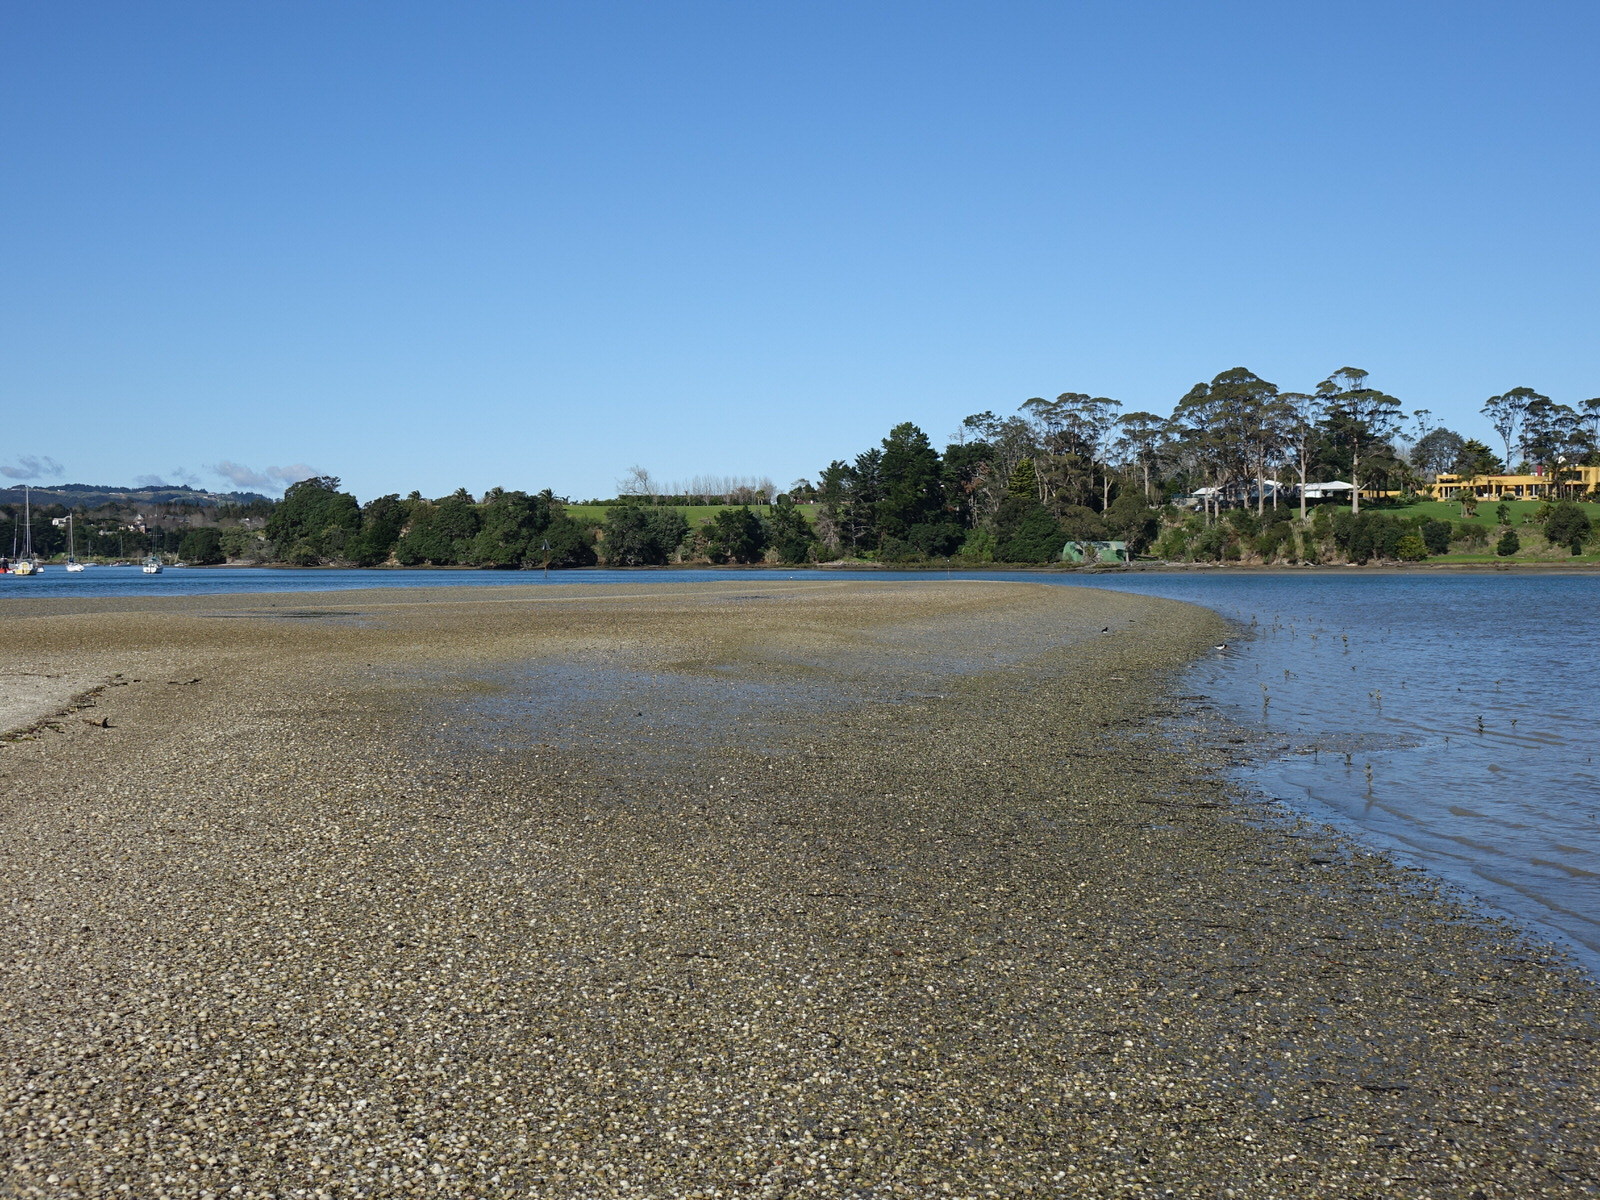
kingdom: Animalia
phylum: Chordata
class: Aves
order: Charadriiformes
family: Haematopodidae
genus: Haematopus
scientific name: Haematopus finschi
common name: South island oystercatcher
